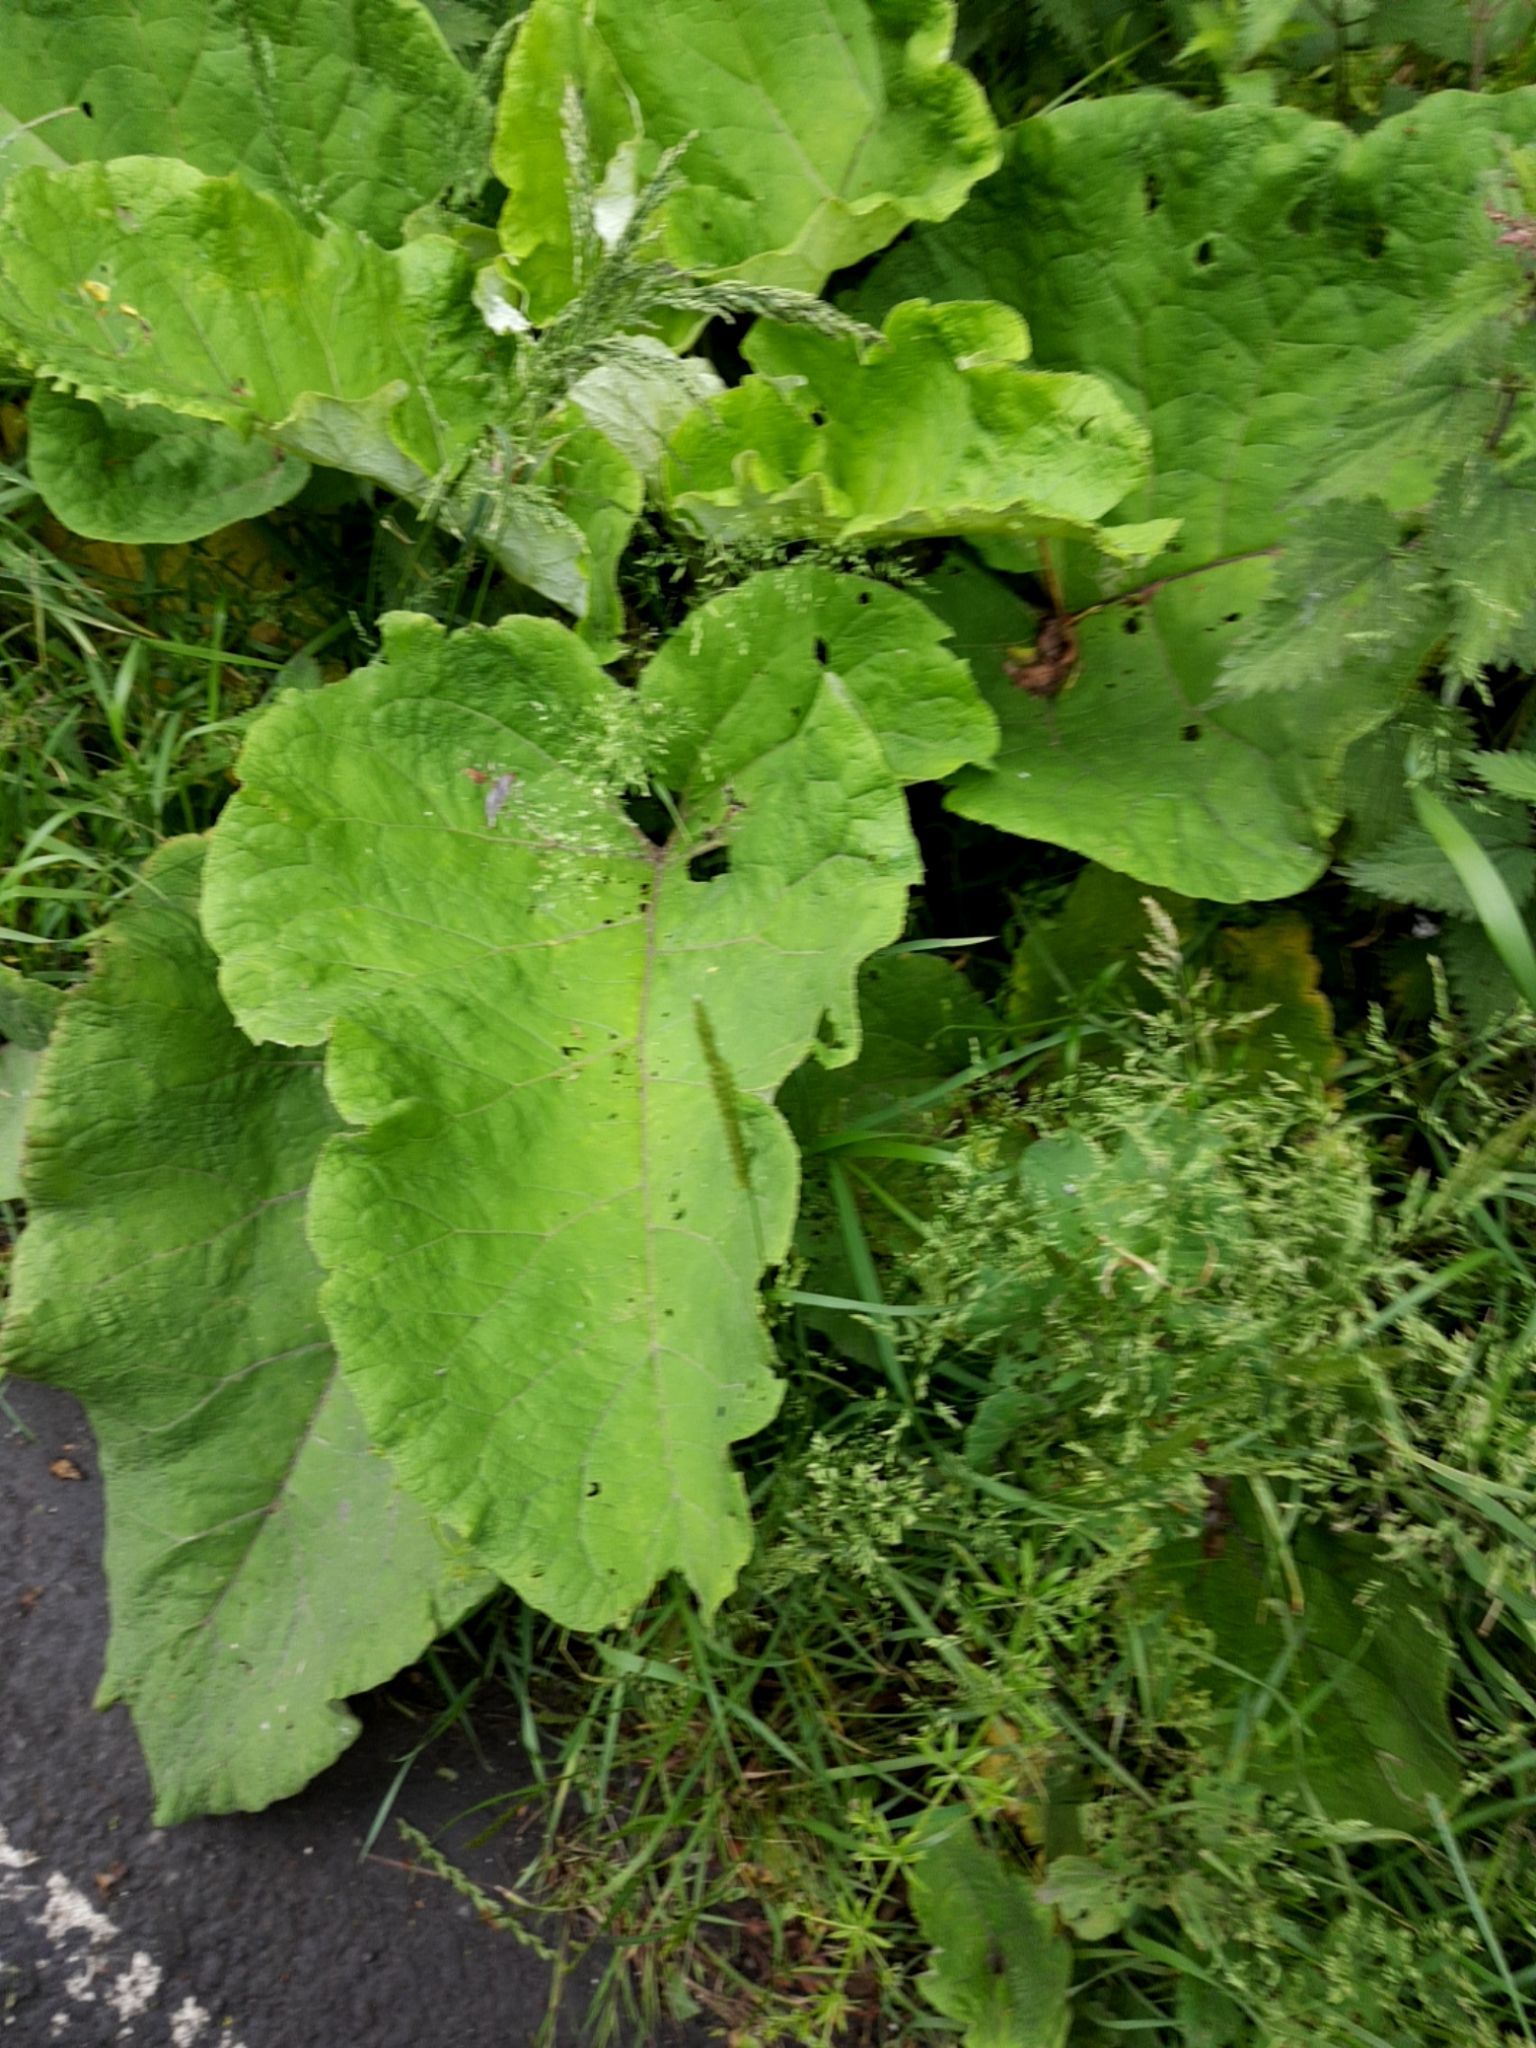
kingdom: Plantae
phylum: Tracheophyta
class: Magnoliopsida
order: Asterales
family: Asteraceae
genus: Arctium
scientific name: Arctium lappa
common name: Greater burdock
